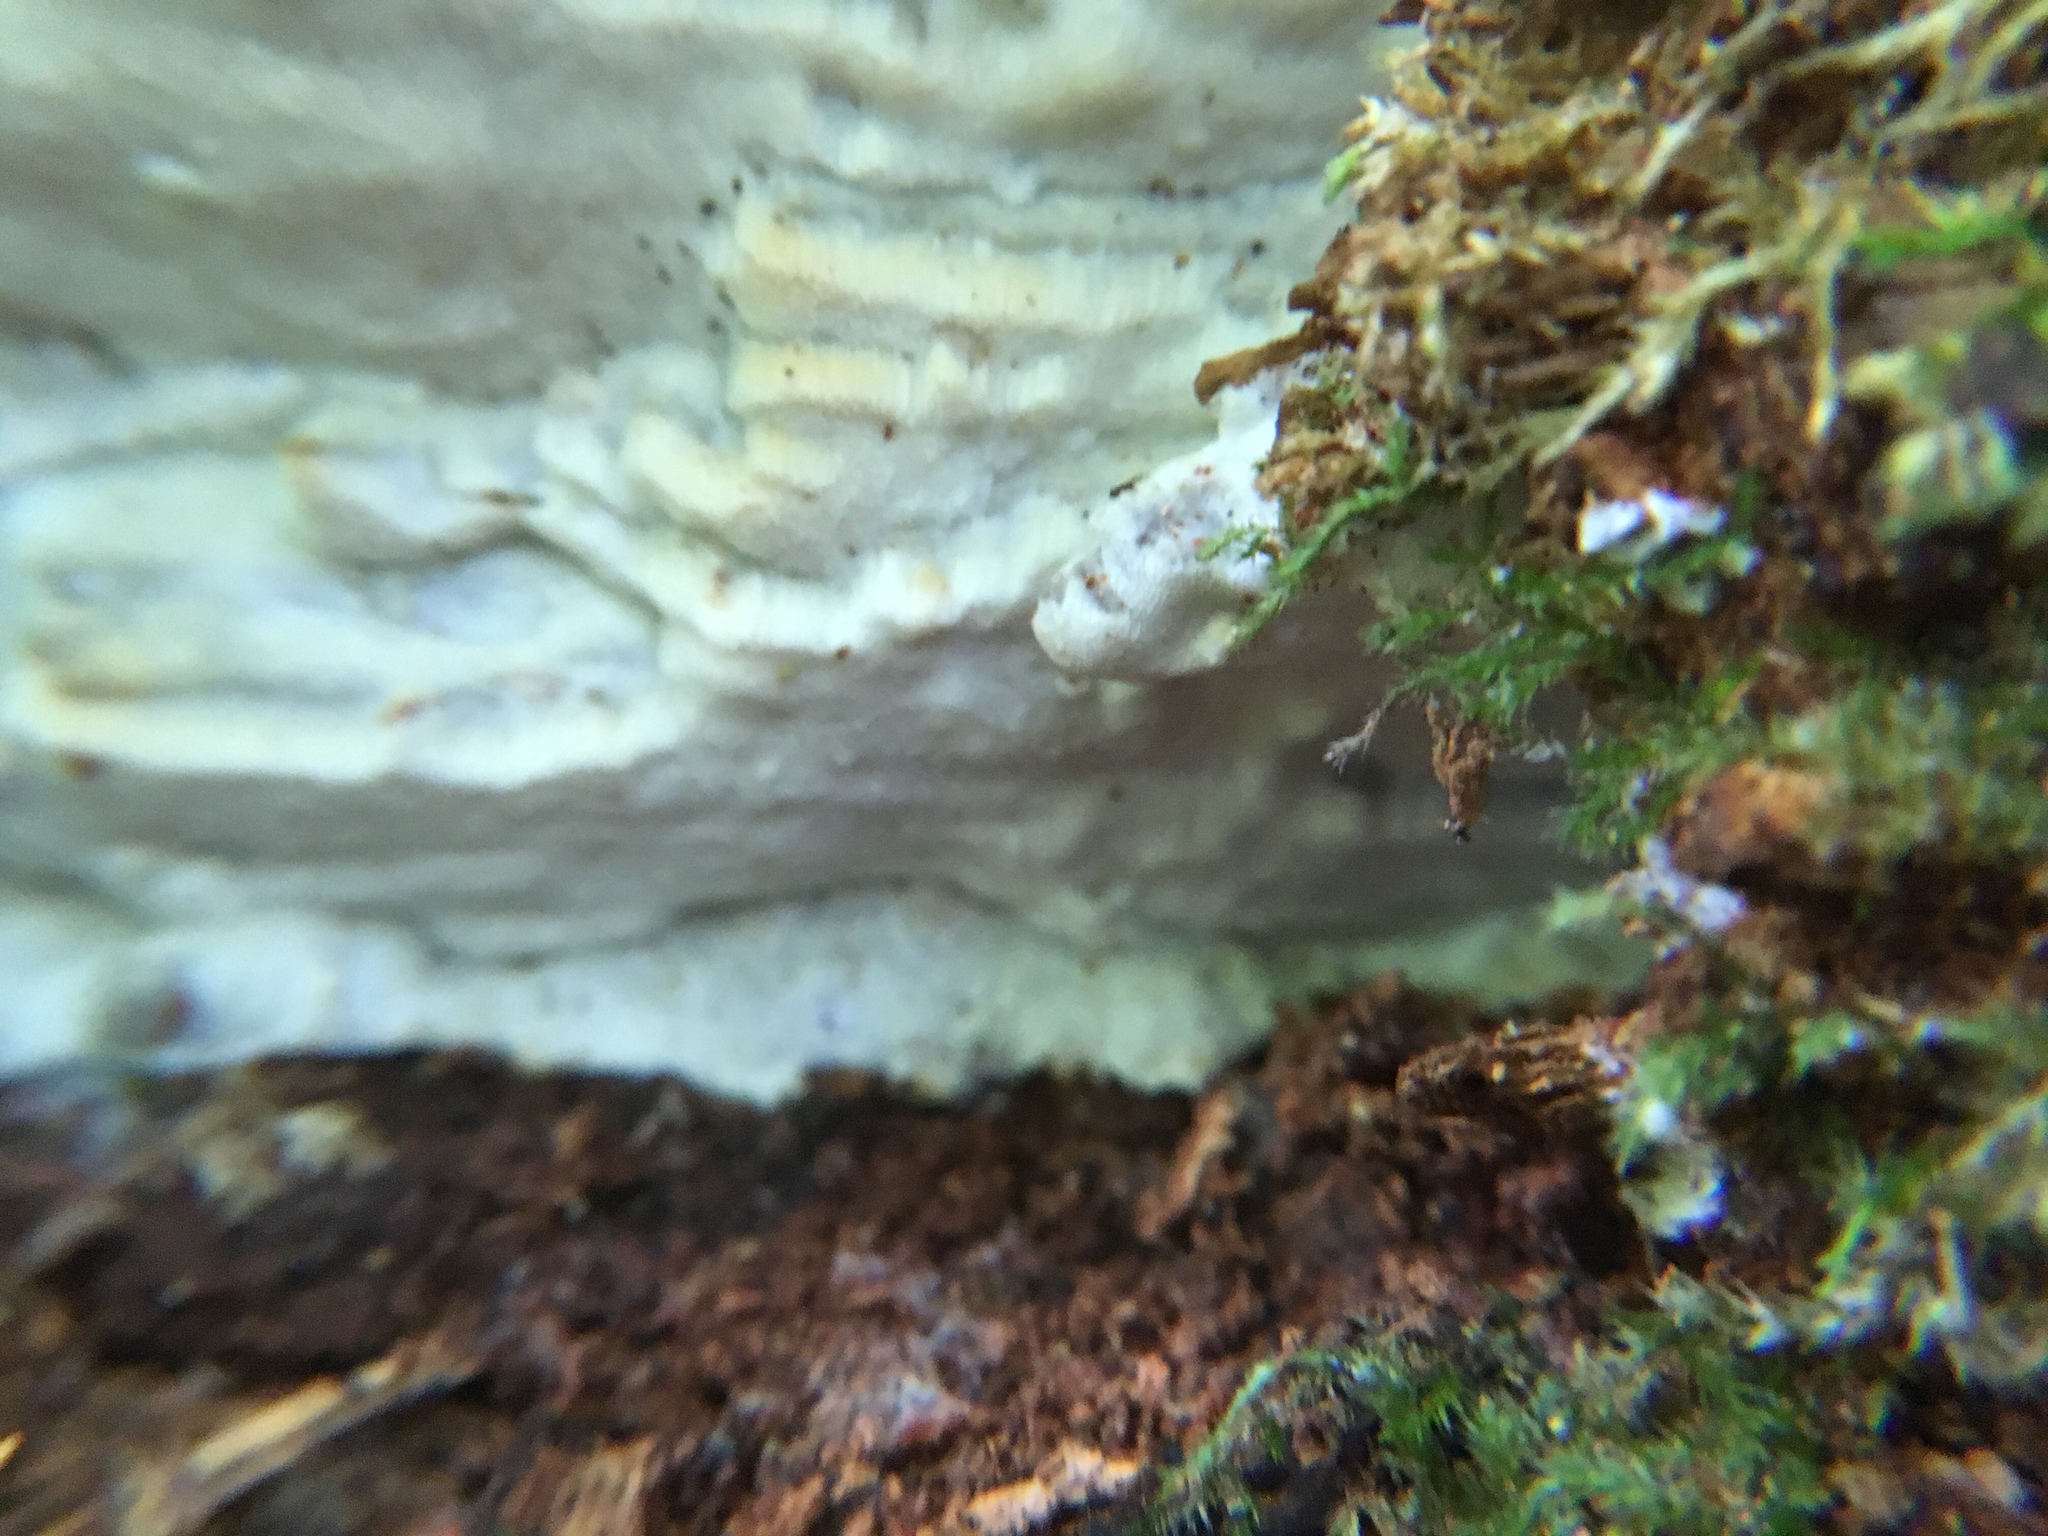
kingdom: Fungi
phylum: Basidiomycota
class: Agaricomycetes
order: Polyporales
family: Incrustoporiaceae
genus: Tyromyces
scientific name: Tyromyces odorus
